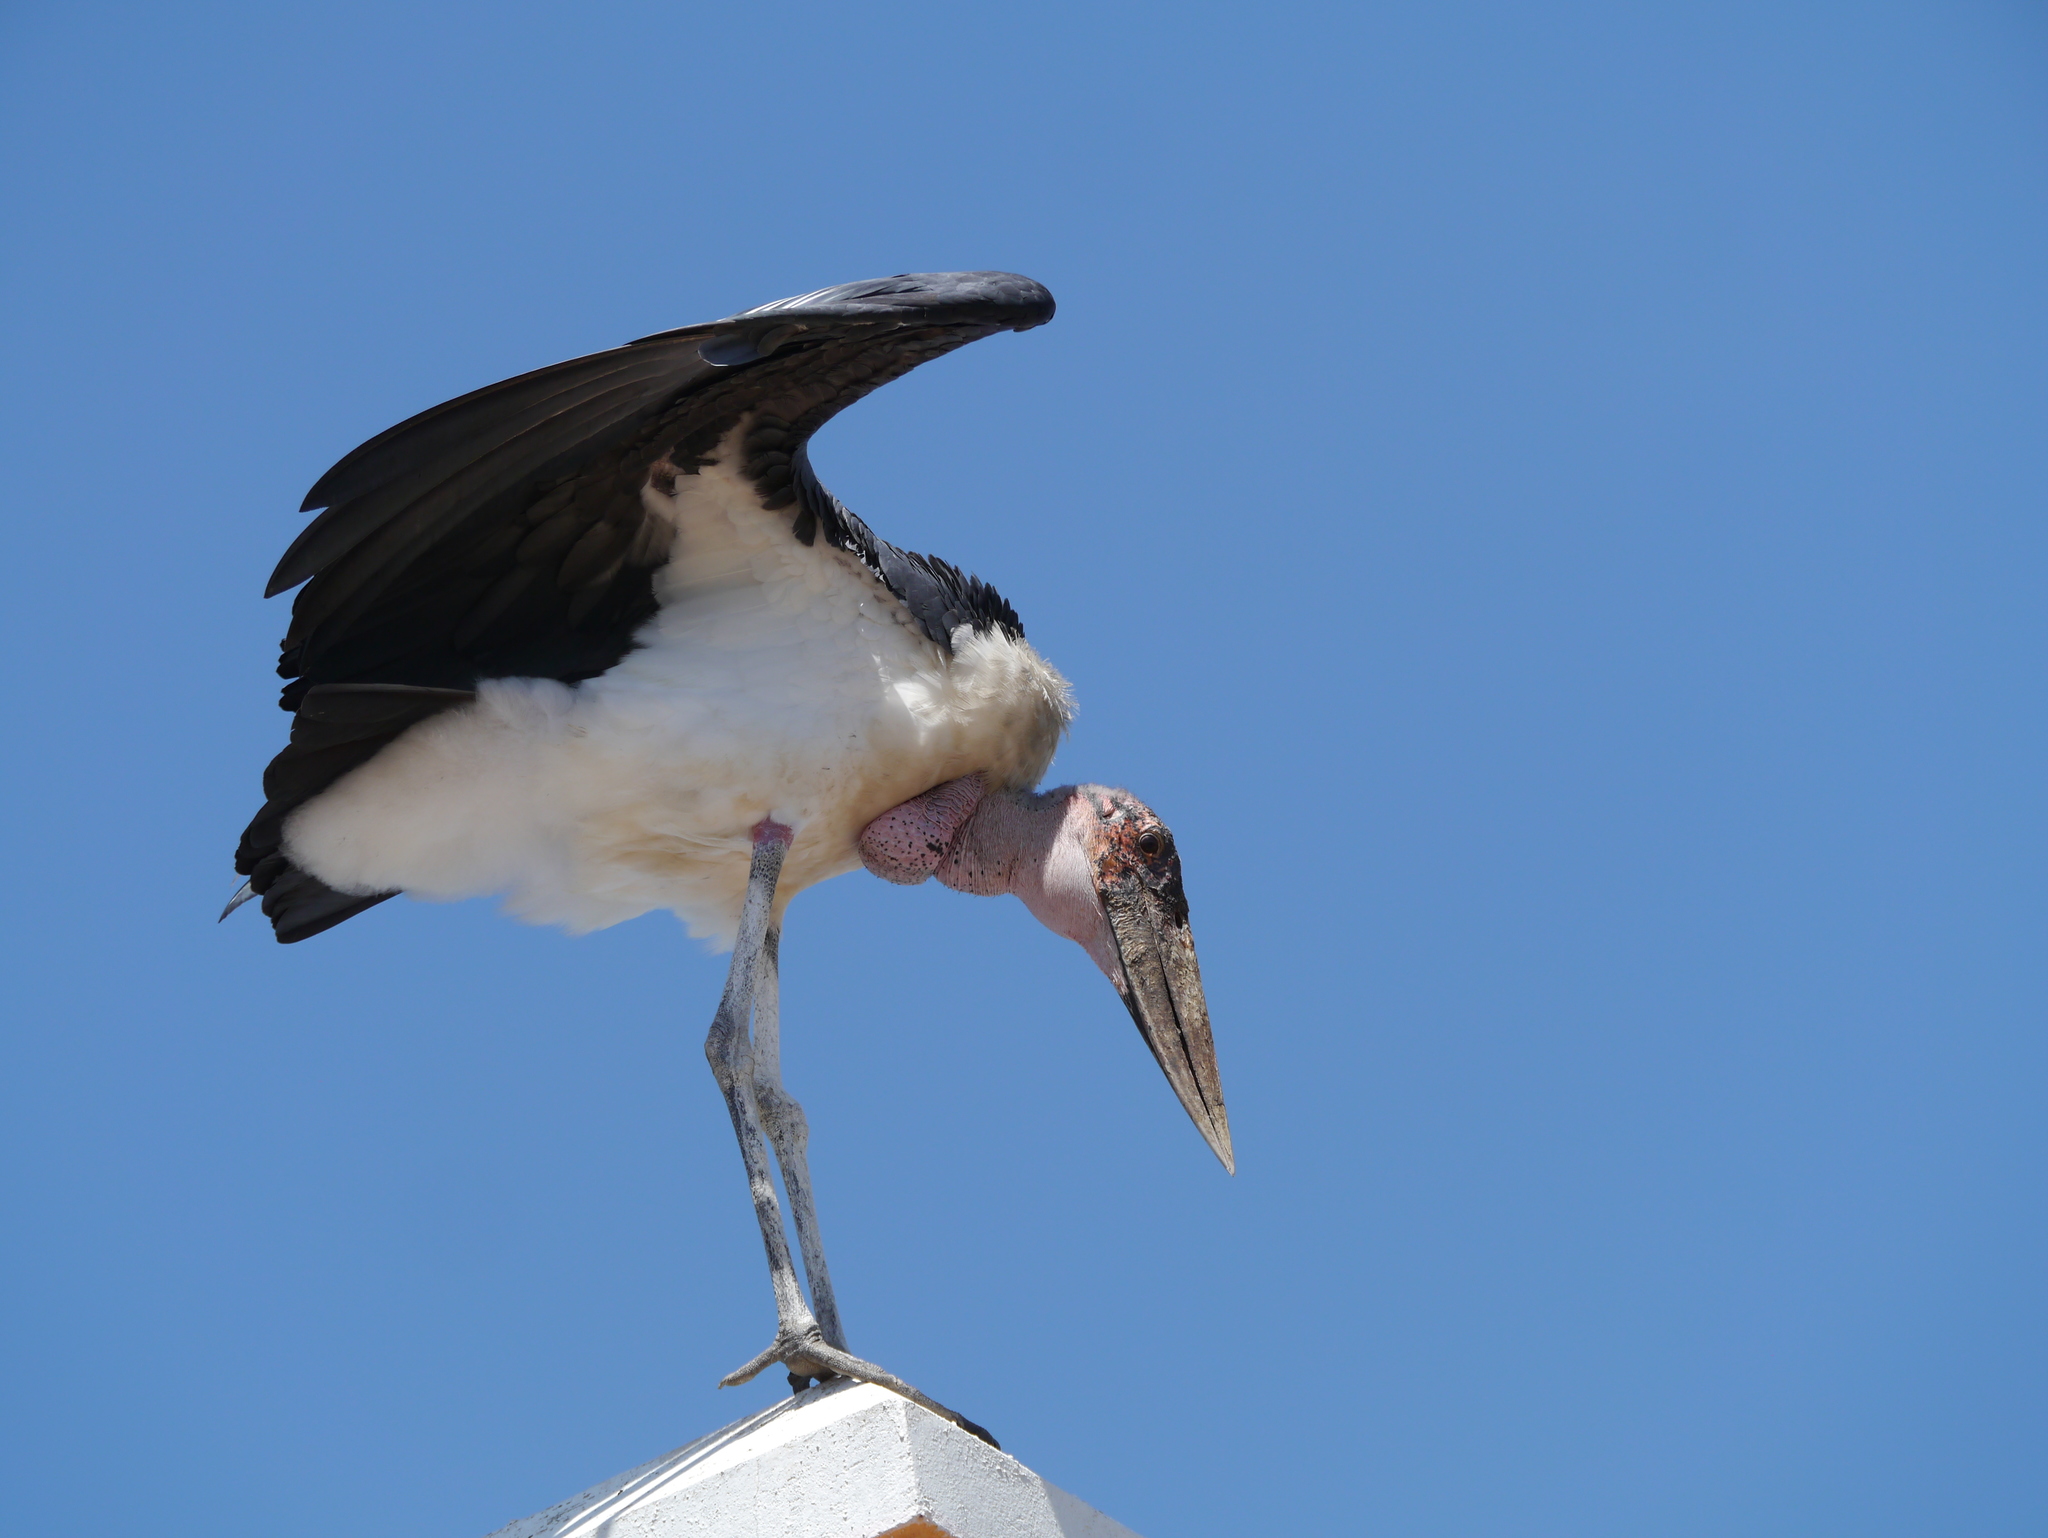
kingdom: Animalia
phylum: Chordata
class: Aves
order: Ciconiiformes
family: Ciconiidae
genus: Leptoptilos
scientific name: Leptoptilos crumenifer
